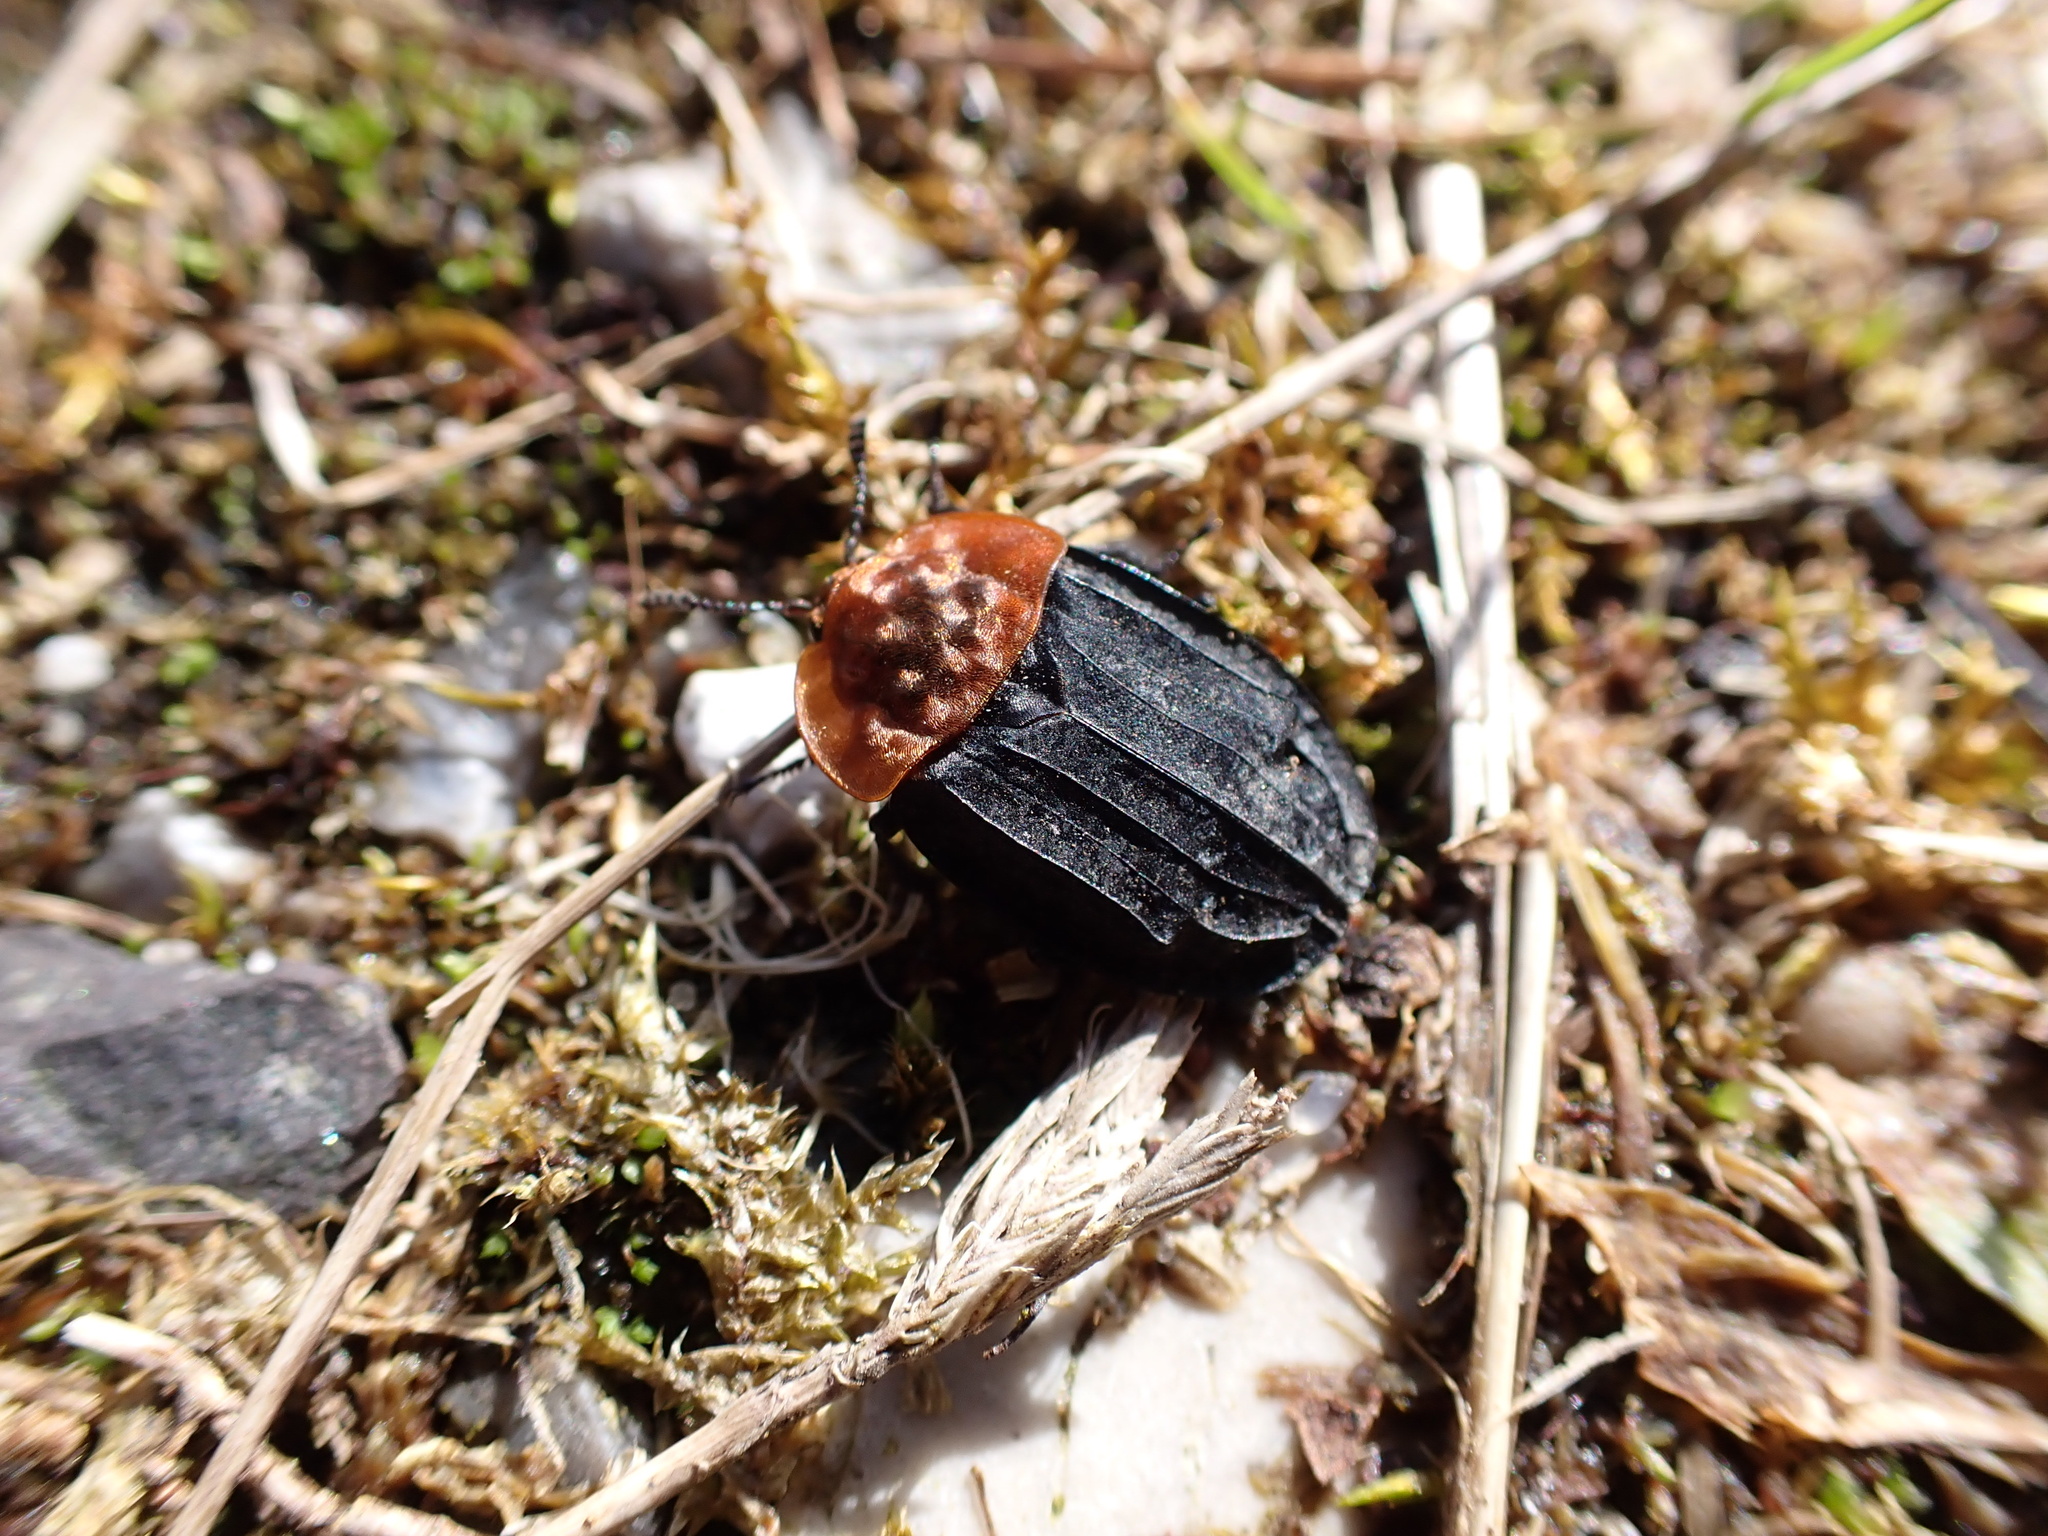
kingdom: Animalia
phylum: Arthropoda
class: Insecta
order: Coleoptera
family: Staphylinidae
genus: Oiceoptoma
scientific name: Oiceoptoma thoracicum
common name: Red-breasted carrion beetle
